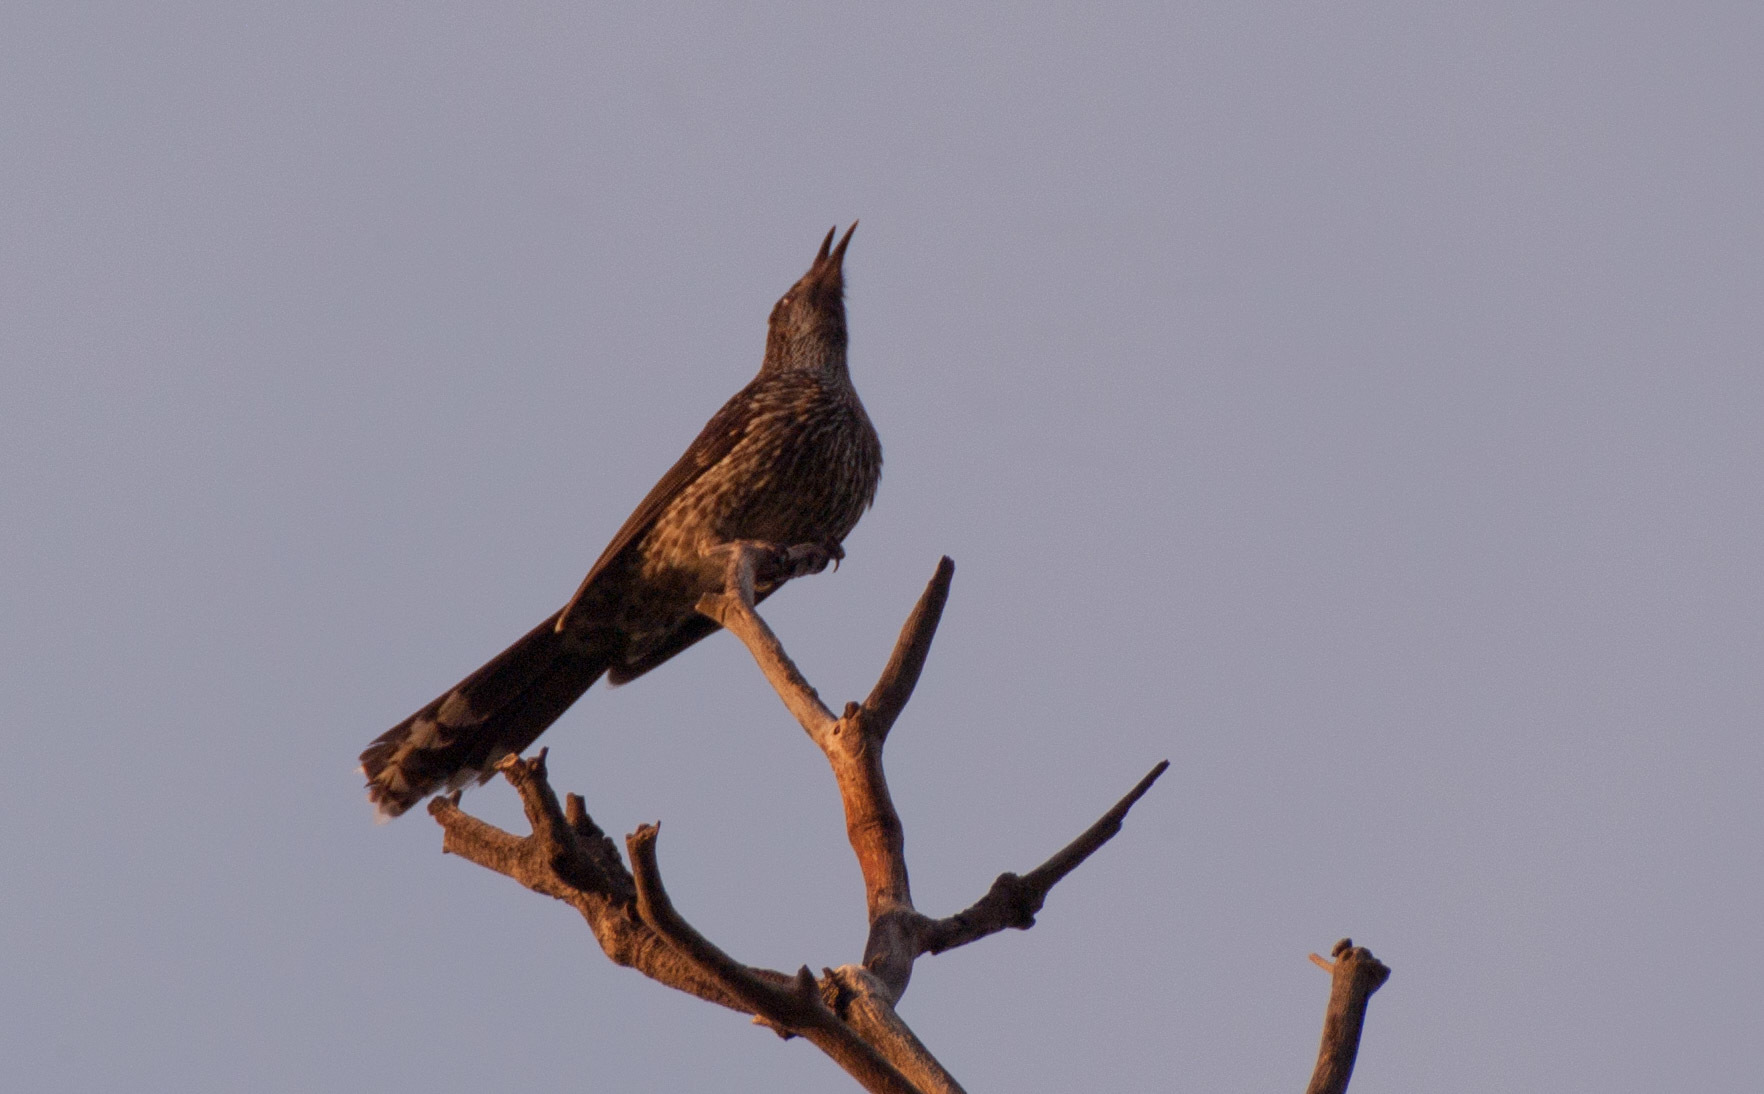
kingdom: Animalia
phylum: Chordata
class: Aves
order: Passeriformes
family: Meliphagidae
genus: Anthochaera
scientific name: Anthochaera chrysoptera
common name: Little wattlebird
